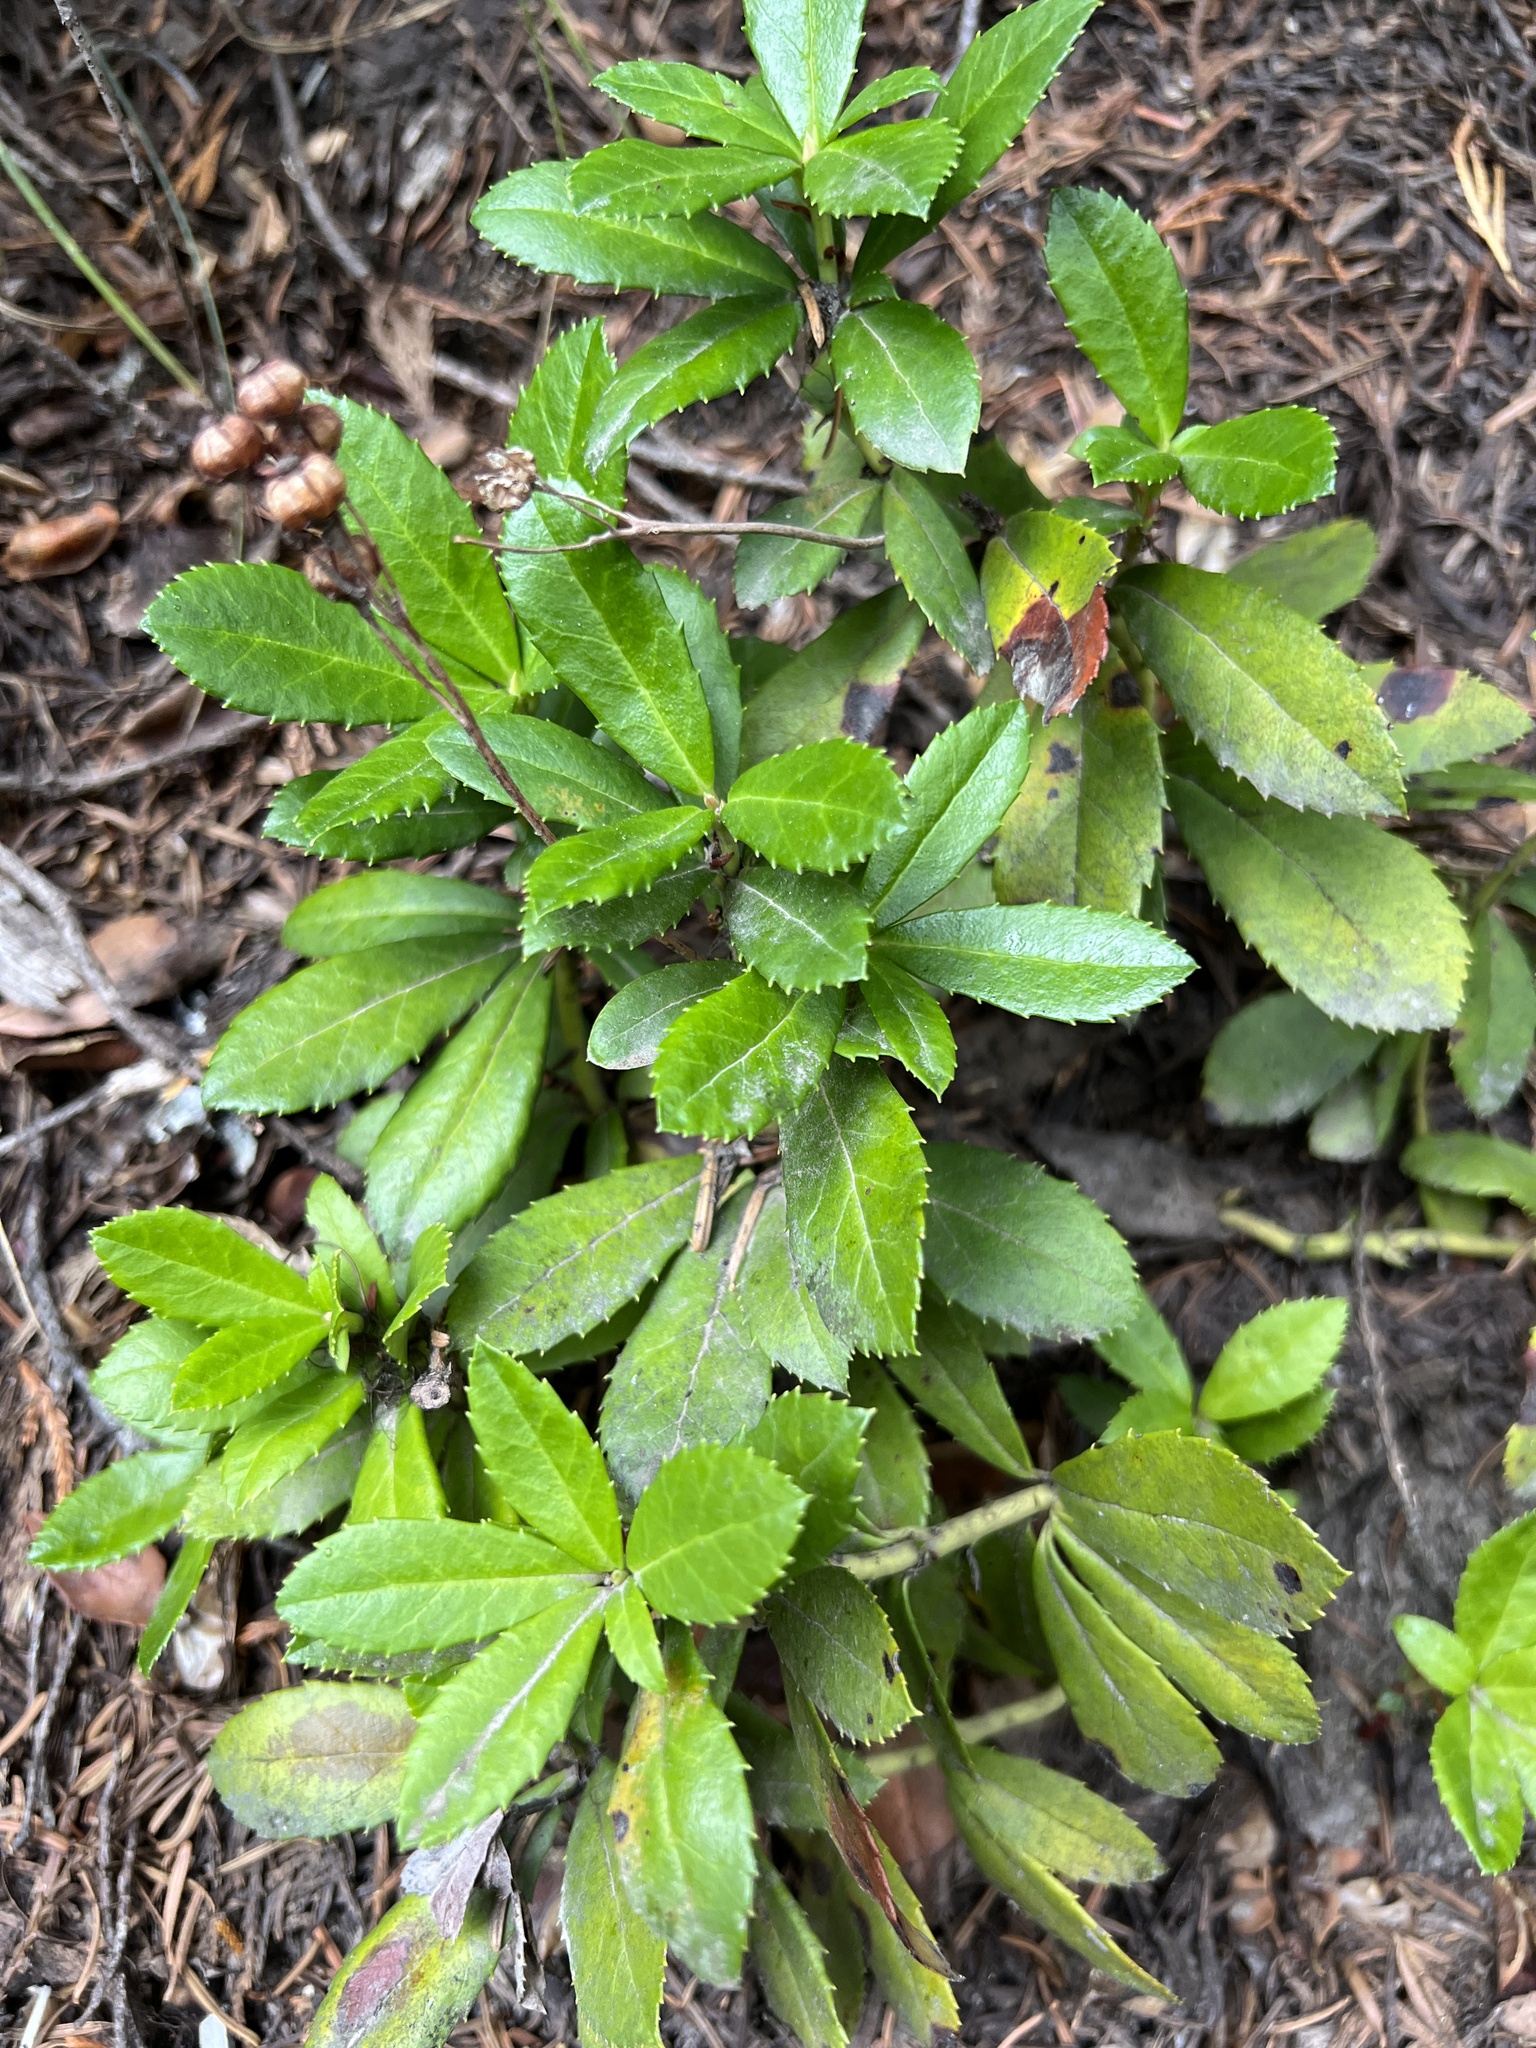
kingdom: Plantae
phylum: Tracheophyta
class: Magnoliopsida
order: Ericales
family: Ericaceae
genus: Chimaphila
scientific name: Chimaphila umbellata
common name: Pipsissewa
